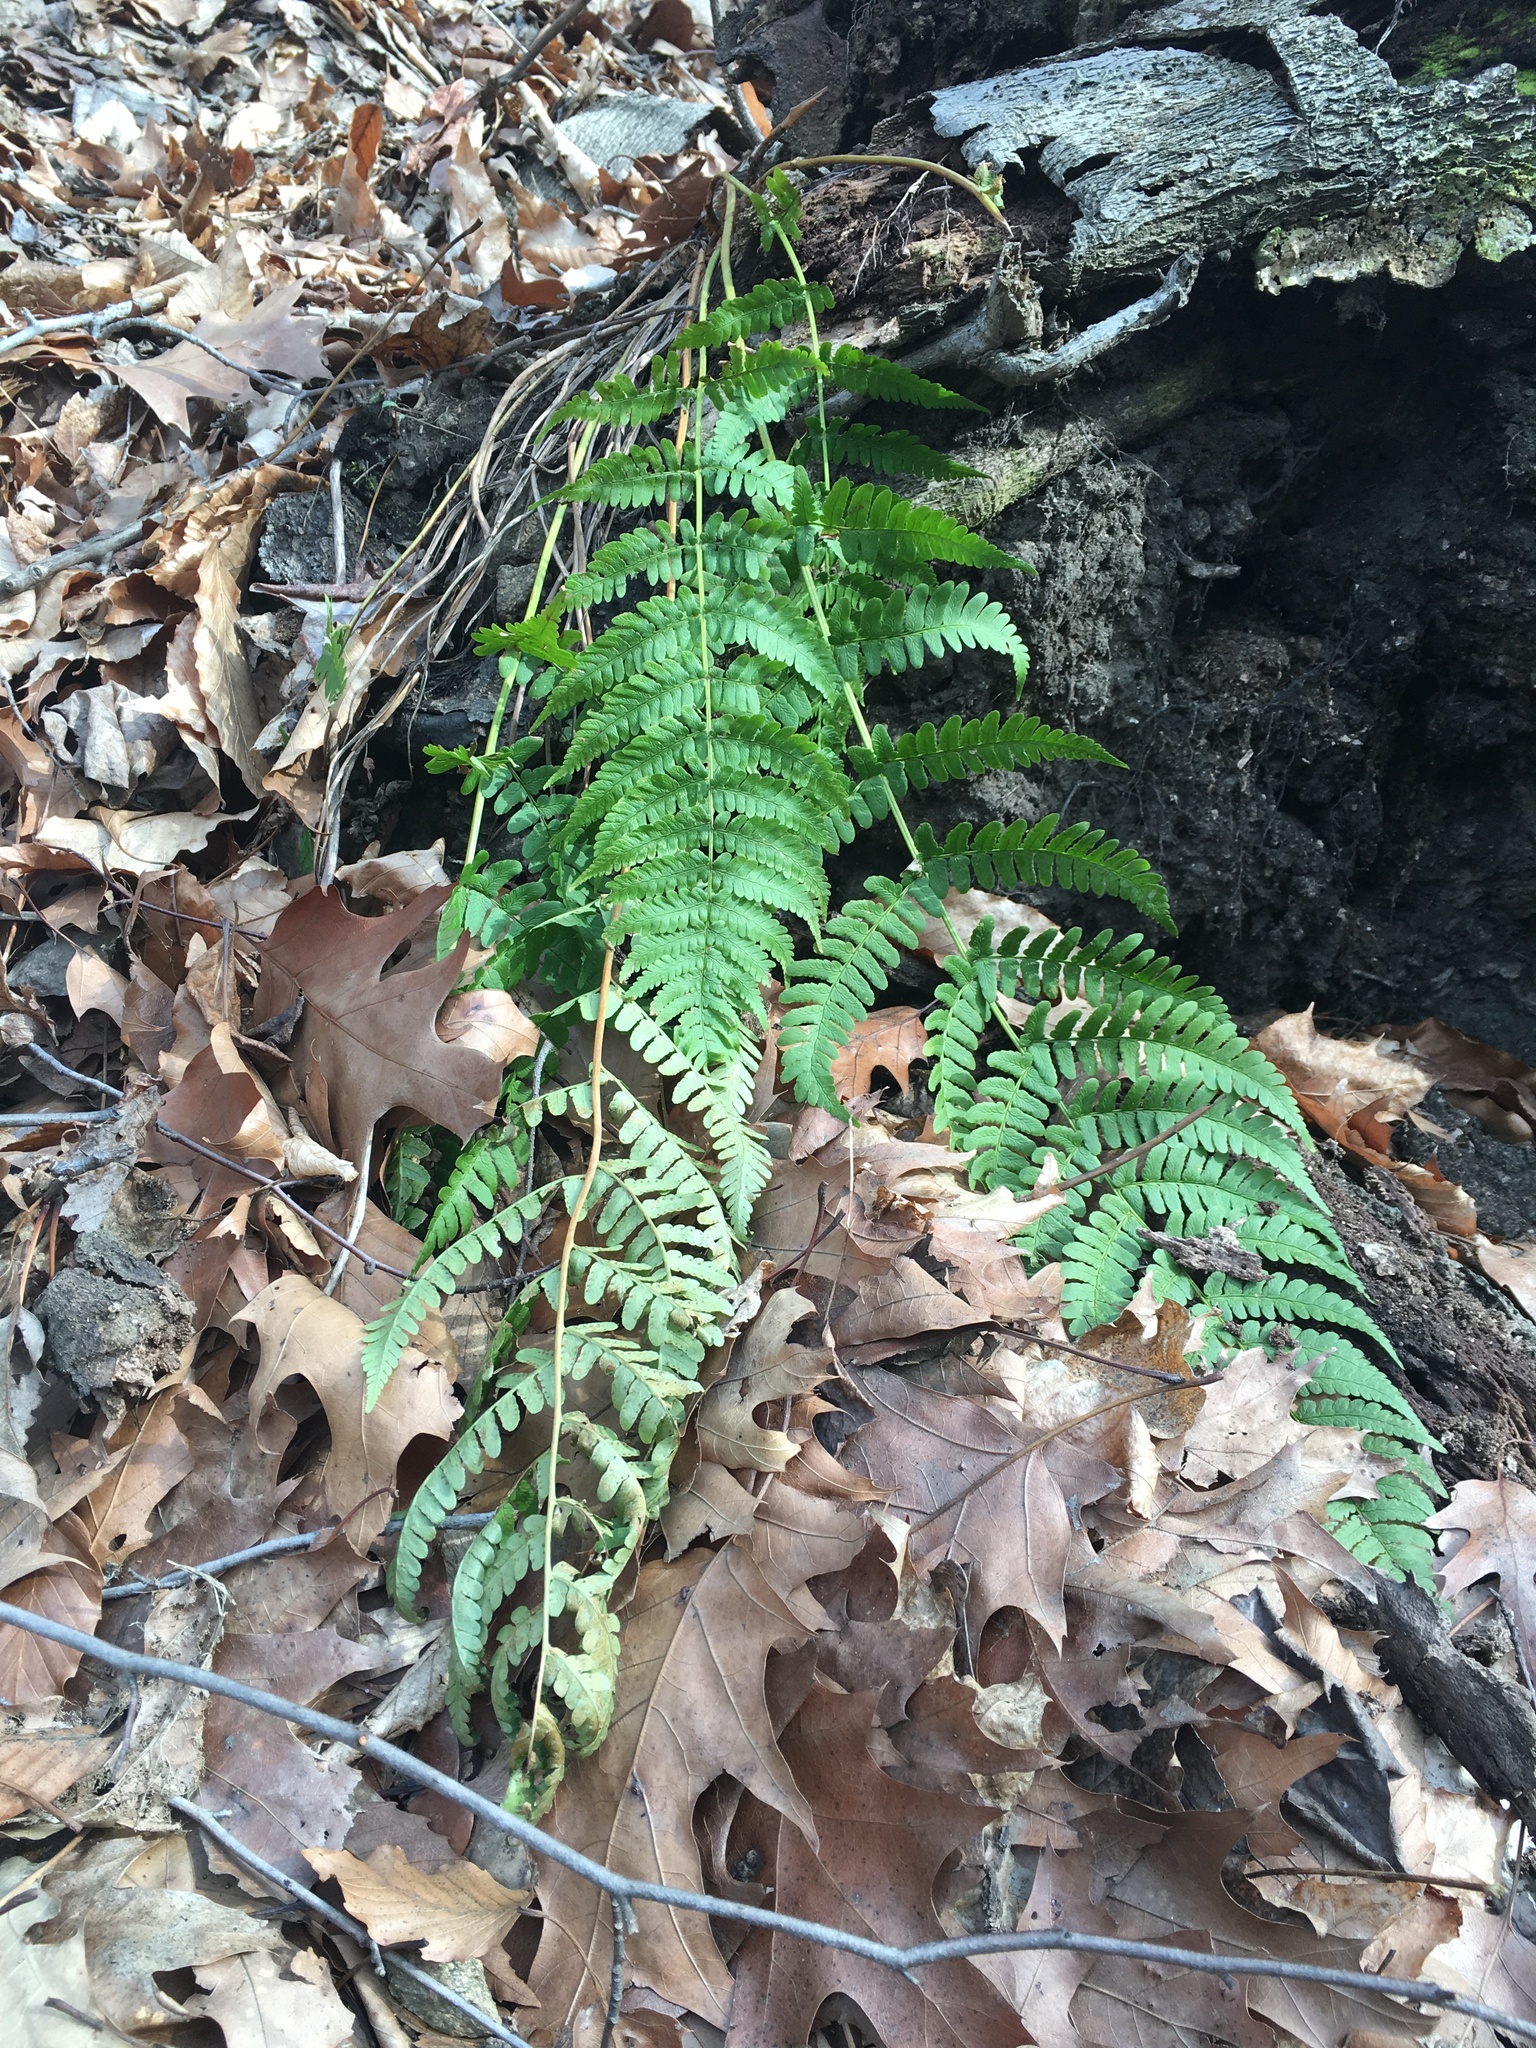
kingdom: Plantae
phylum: Tracheophyta
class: Polypodiopsida
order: Polypodiales
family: Dryopteridaceae
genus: Dryopteris
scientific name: Dryopteris marginalis
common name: Marginal wood fern
